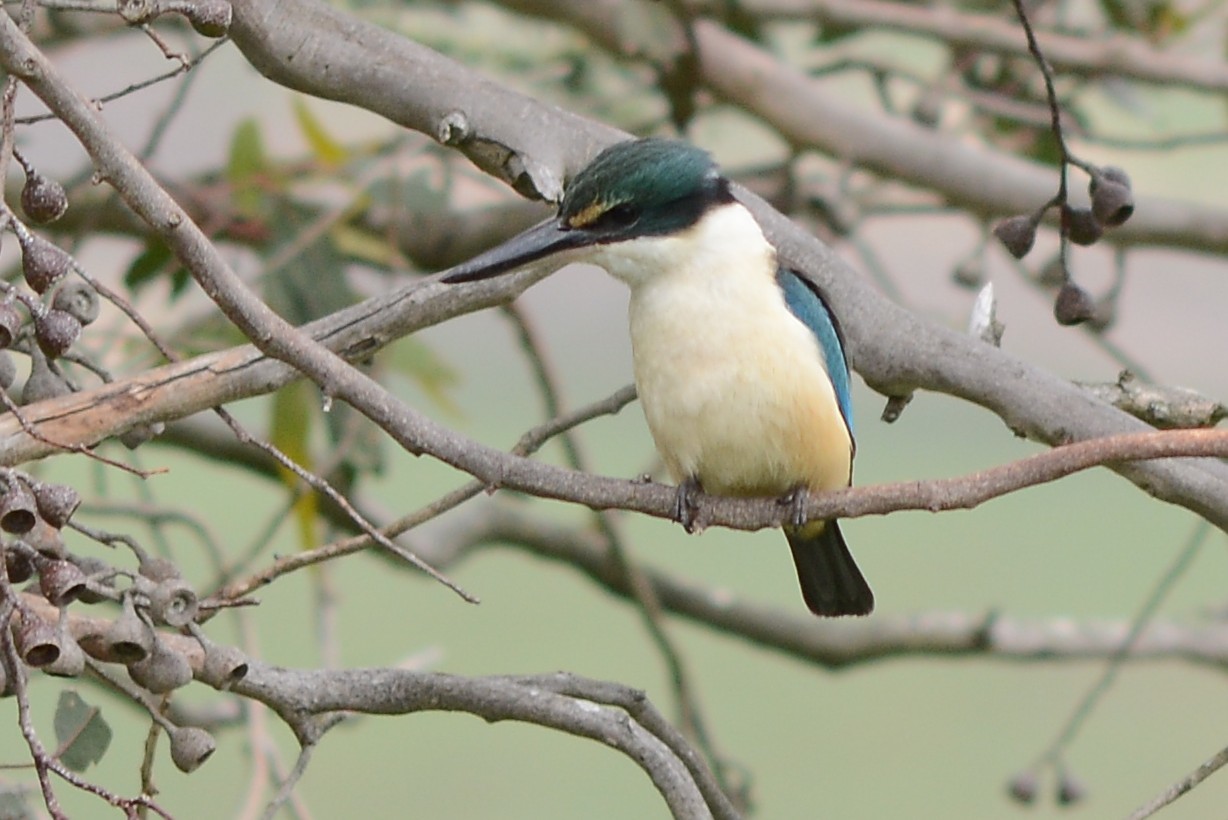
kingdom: Animalia
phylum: Chordata
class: Aves
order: Coraciiformes
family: Alcedinidae
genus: Todiramphus
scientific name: Todiramphus sanctus
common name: Sacred kingfisher
